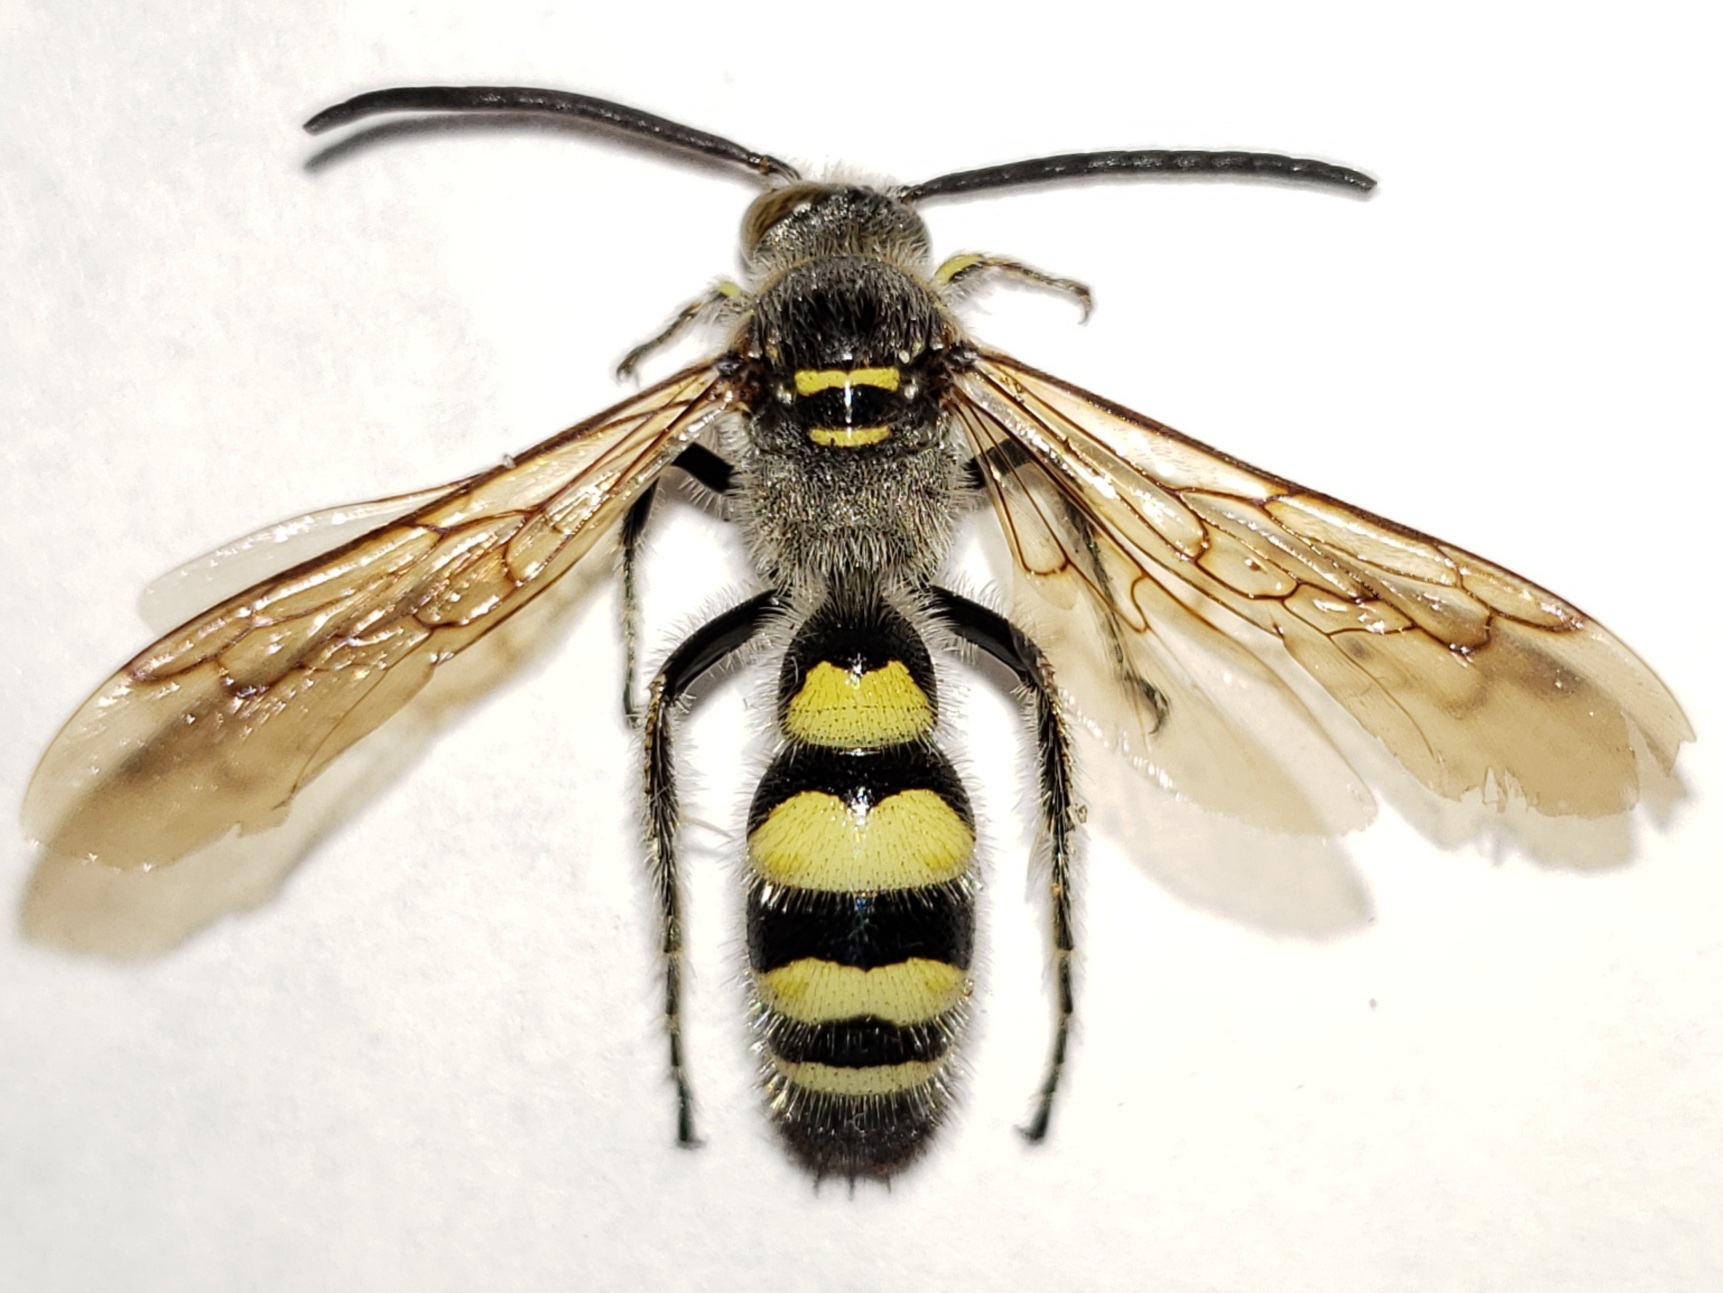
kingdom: Animalia
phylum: Arthropoda
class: Insecta
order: Hymenoptera
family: Scoliidae
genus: Dielis
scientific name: Dielis dorsata
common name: Scoliid wasp
